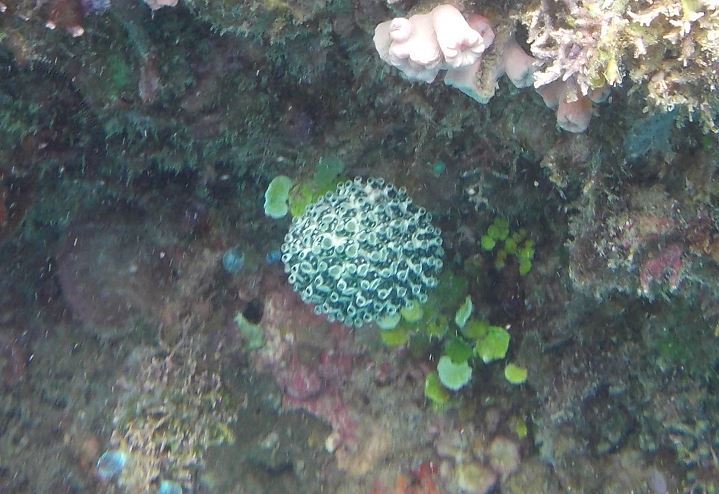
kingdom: Animalia
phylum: Chordata
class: Ascidiacea
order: Aplousobranchia
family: Clavelinidae
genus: Nephtheis
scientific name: Nephtheis fascicularis
